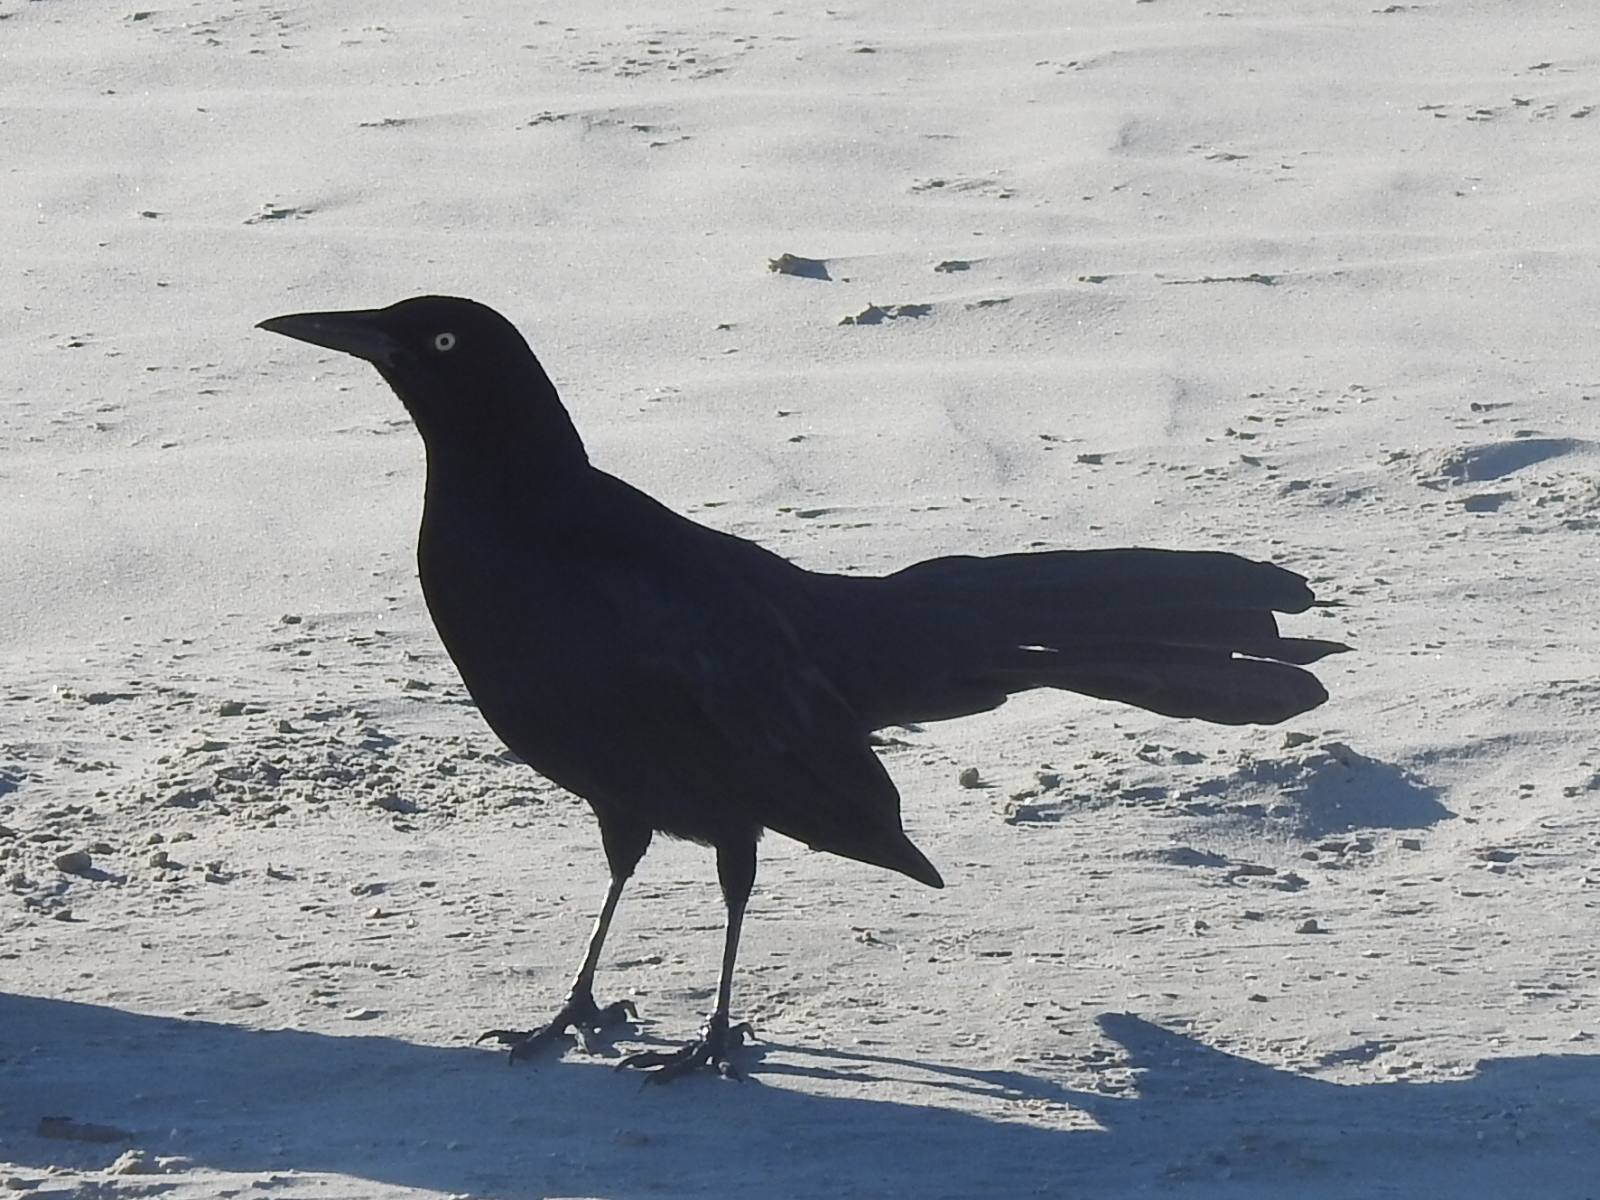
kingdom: Animalia
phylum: Chordata
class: Aves
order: Passeriformes
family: Icteridae
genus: Quiscalus
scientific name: Quiscalus mexicanus
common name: Great-tailed grackle
